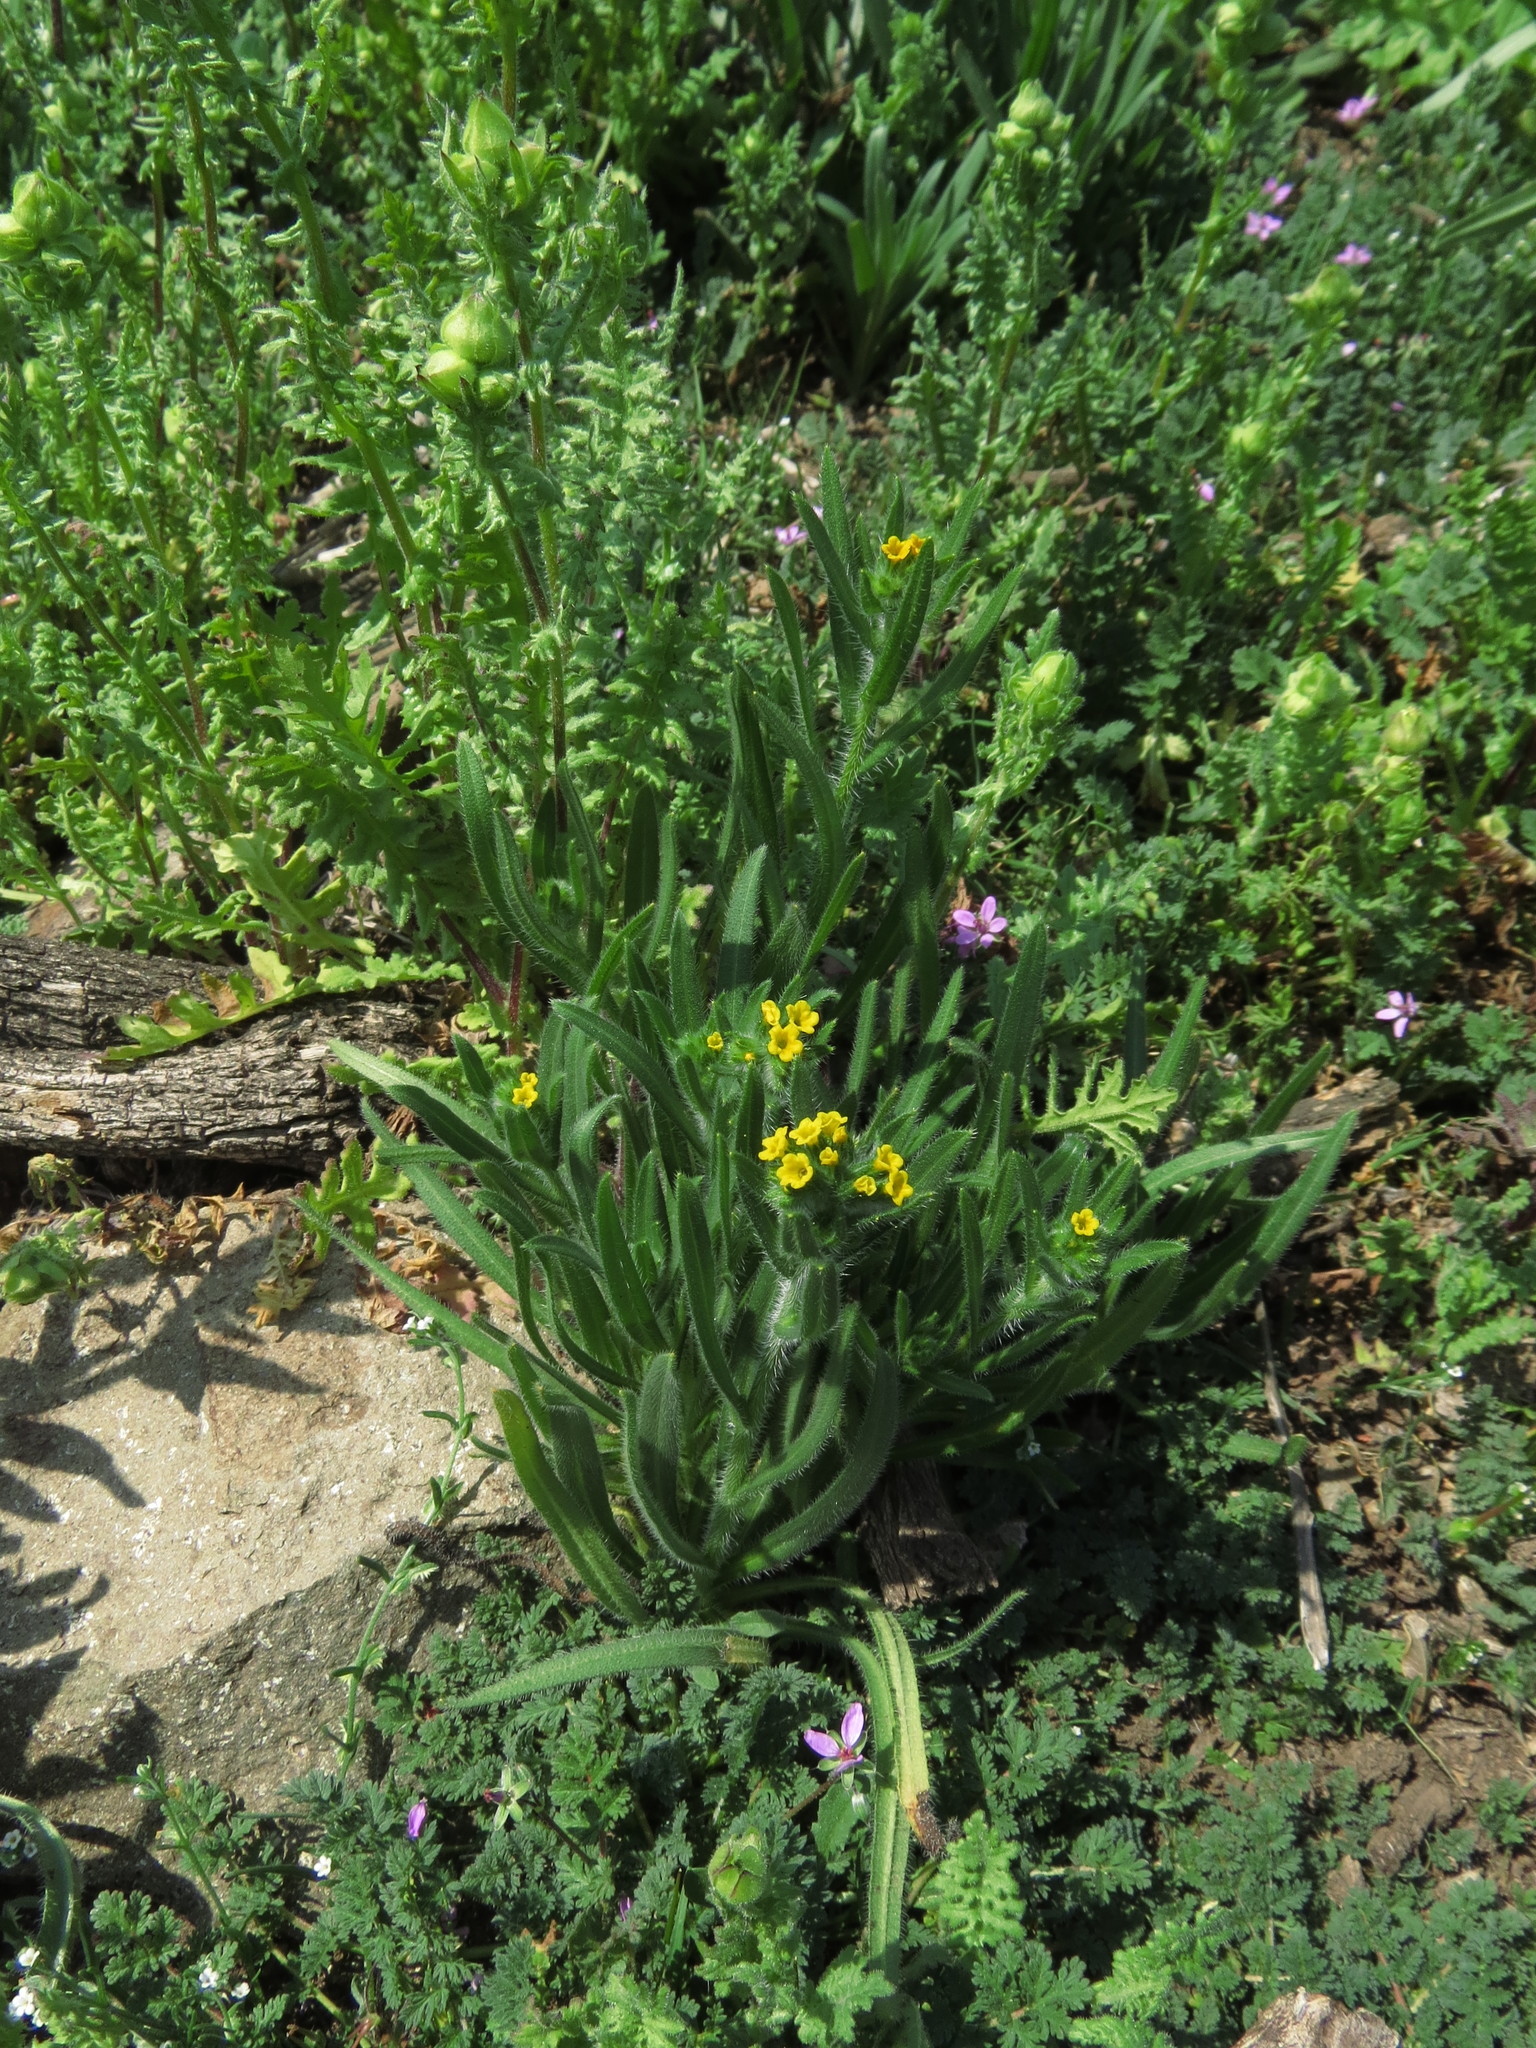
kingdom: Plantae
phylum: Tracheophyta
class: Magnoliopsida
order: Boraginales
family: Boraginaceae
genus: Amsinckia
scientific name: Amsinckia calycina
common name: Hairy fiddleneck
